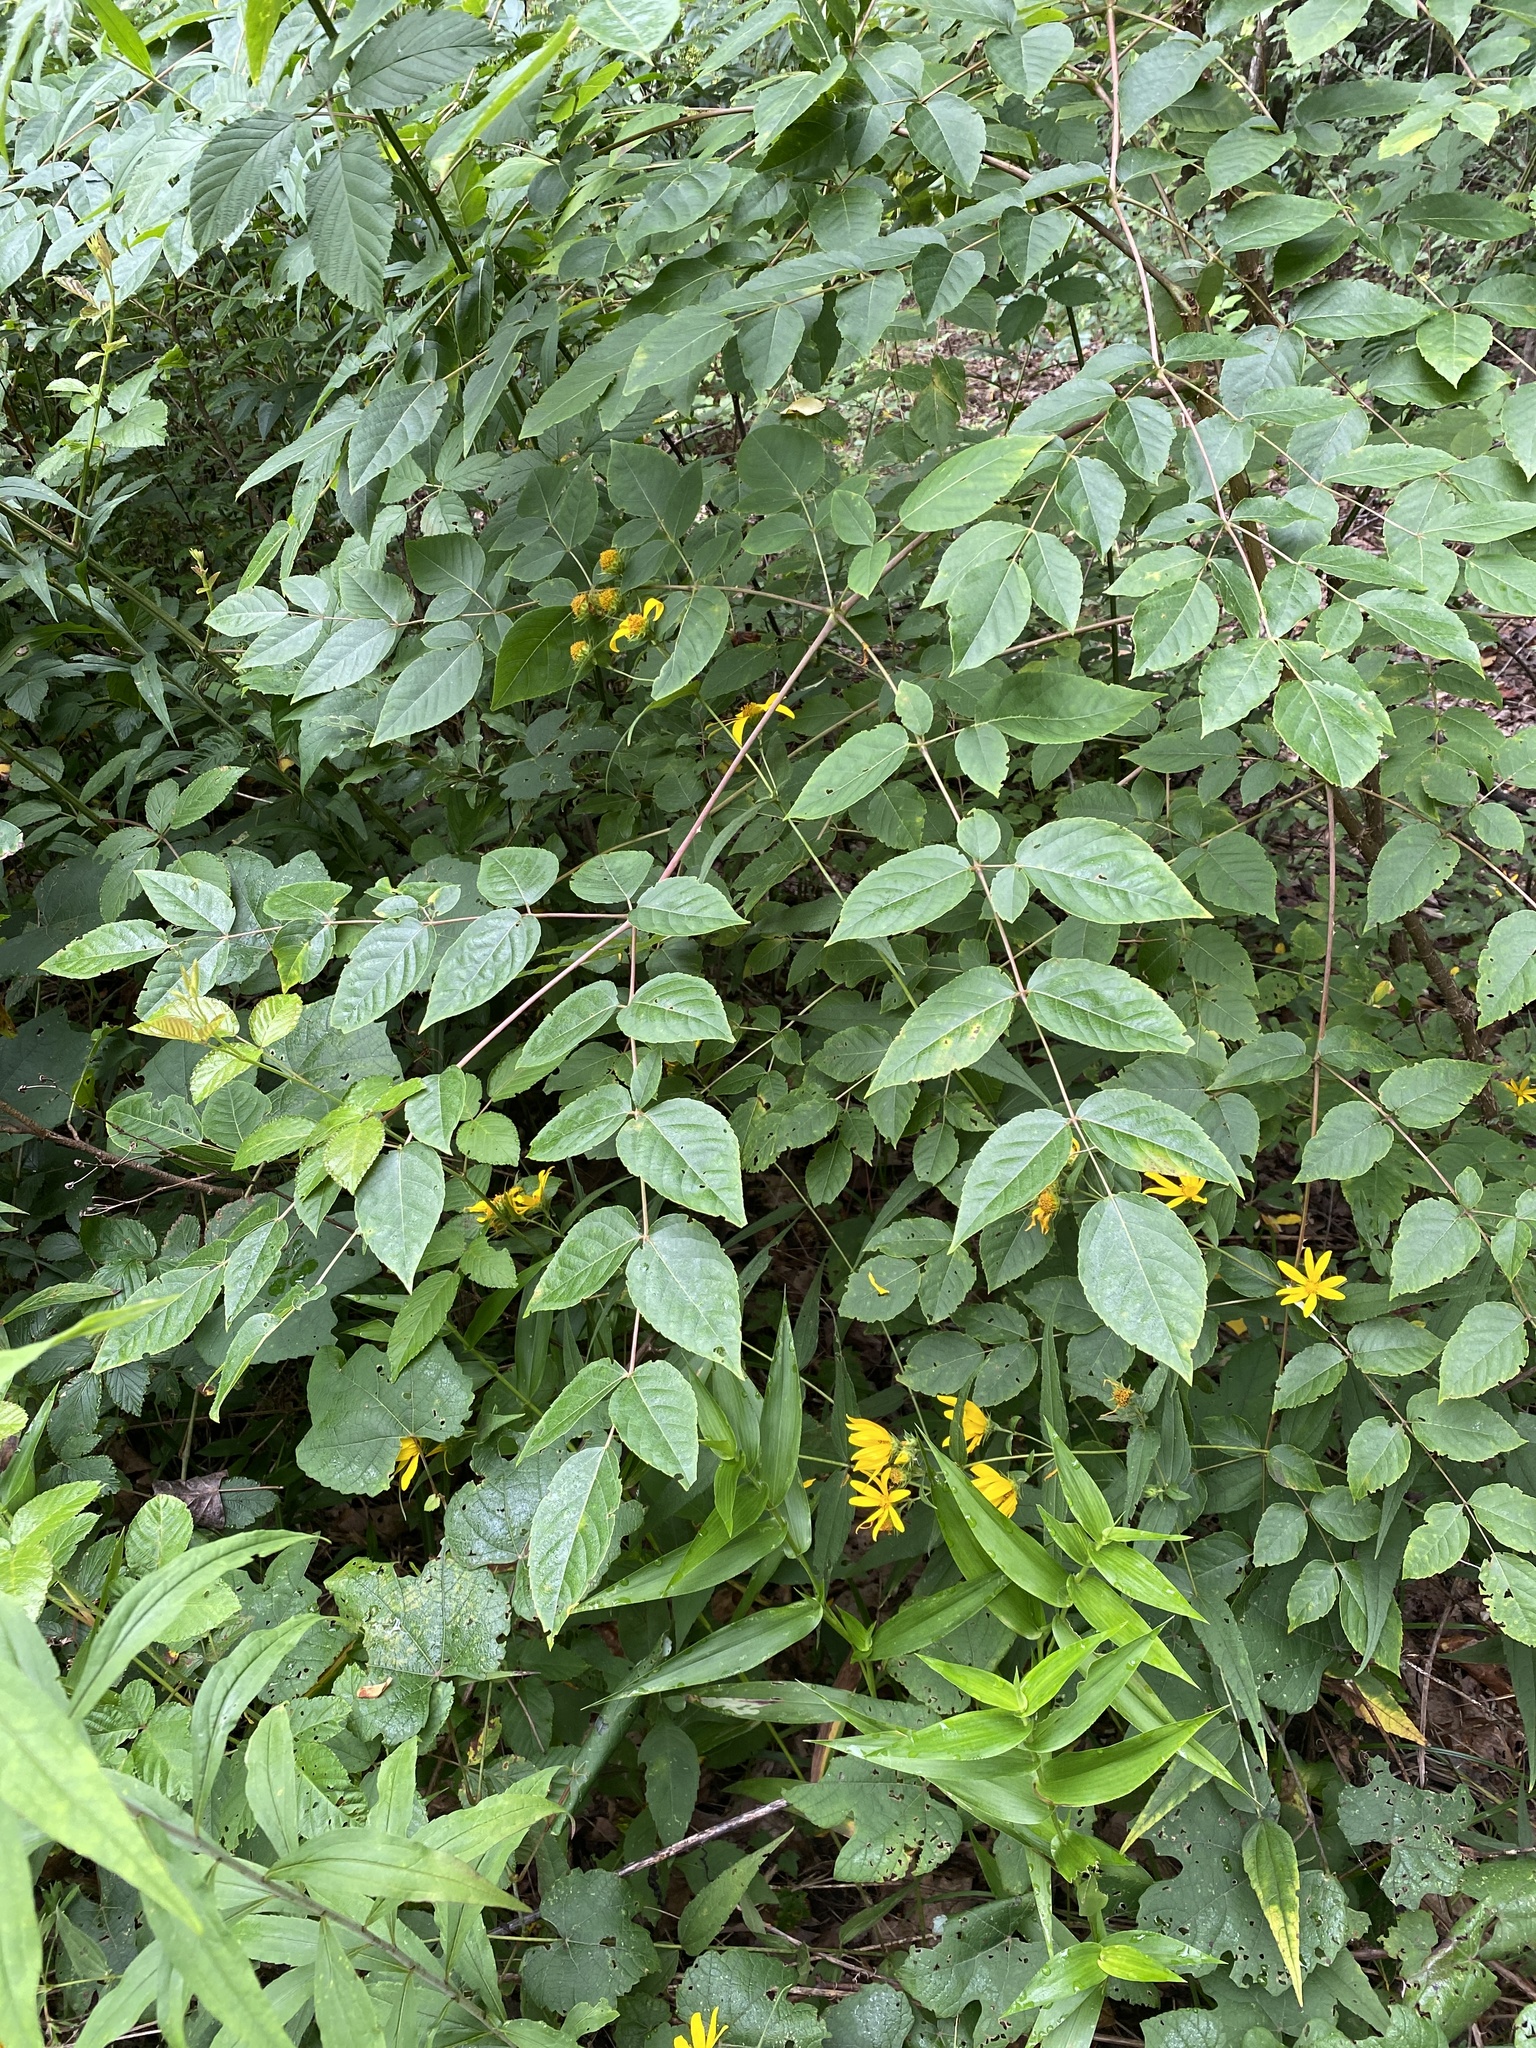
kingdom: Plantae
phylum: Tracheophyta
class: Magnoliopsida
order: Apiales
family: Araliaceae
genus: Aralia
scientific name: Aralia spinosa
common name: Hercules'-club
